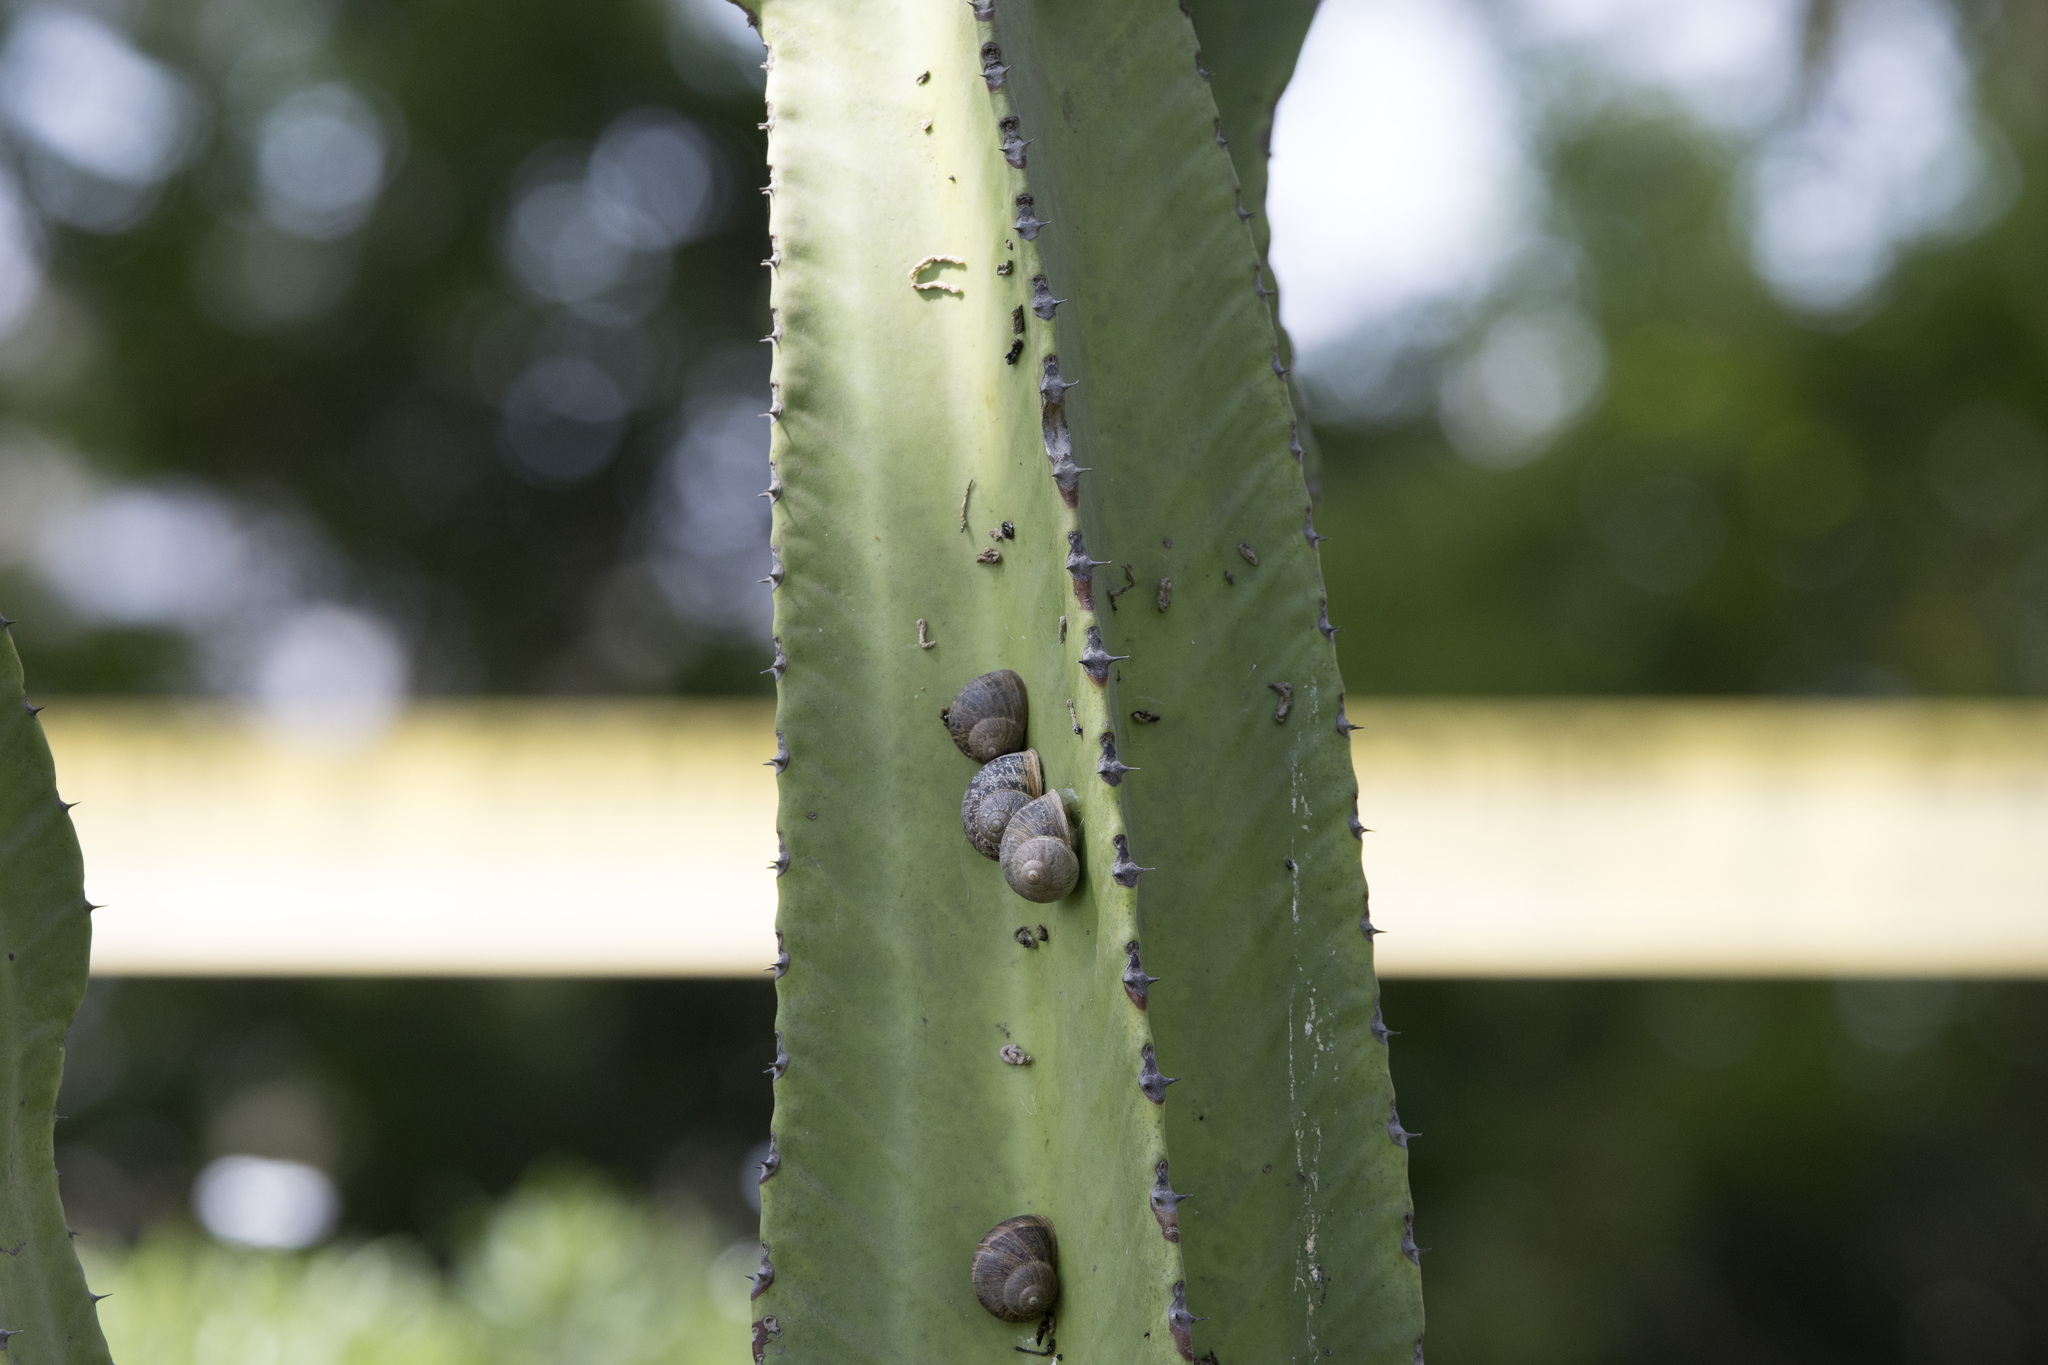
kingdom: Animalia
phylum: Mollusca
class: Gastropoda
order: Stylommatophora
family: Helicidae
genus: Cornu
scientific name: Cornu aspersum
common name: Brown garden snail
